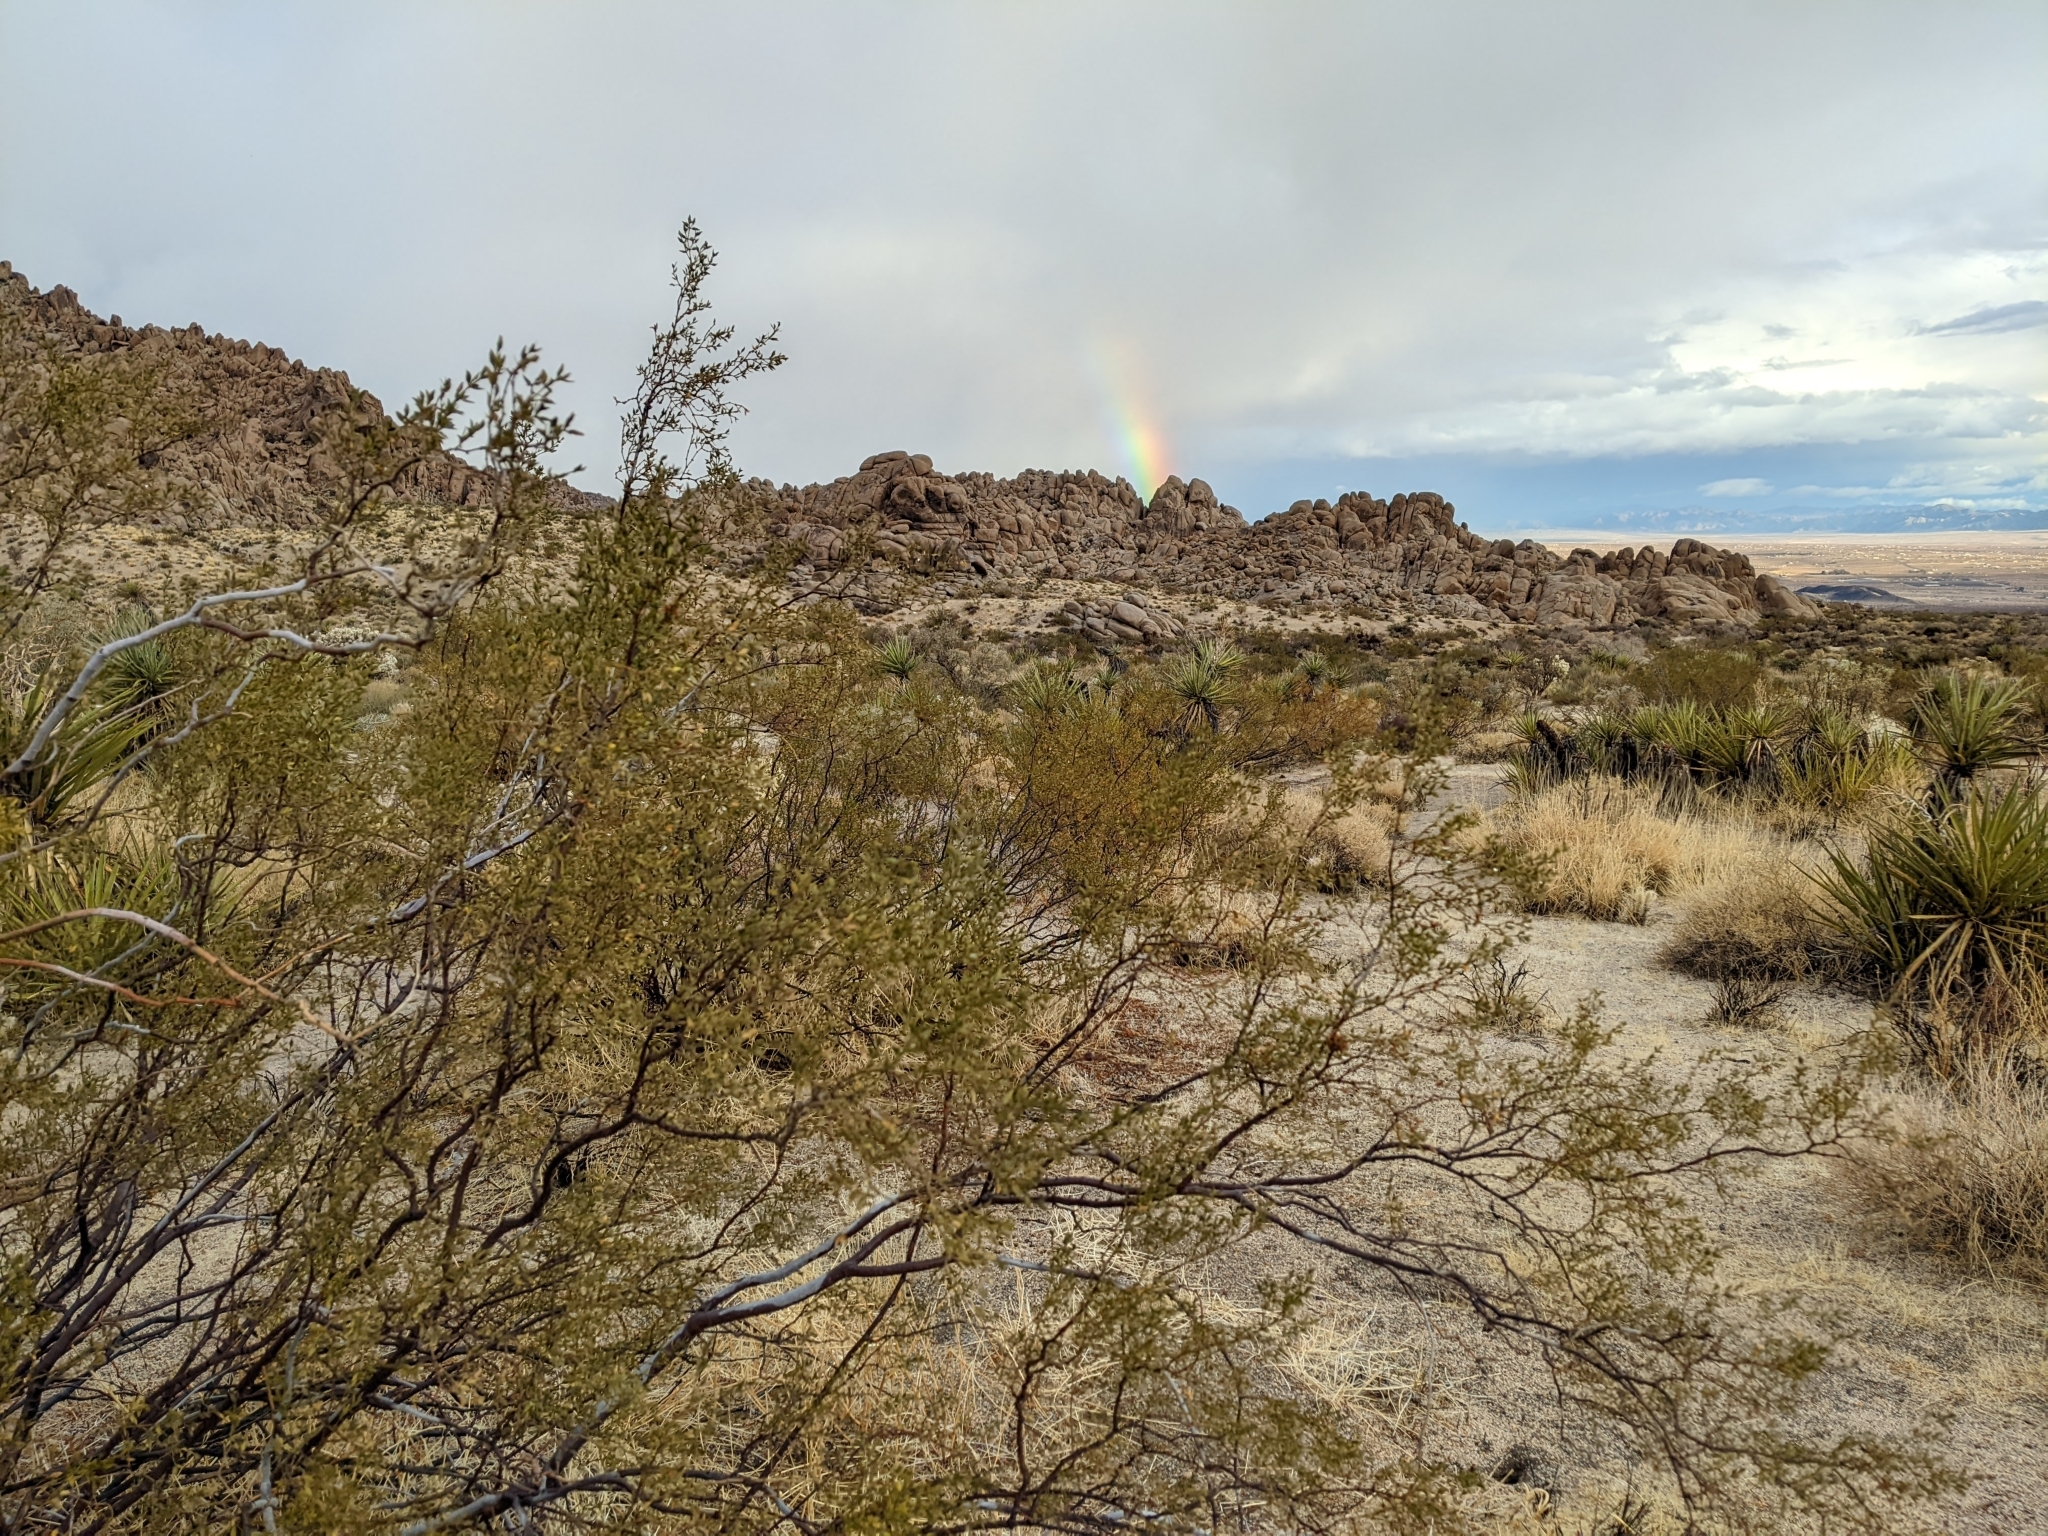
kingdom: Plantae
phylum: Tracheophyta
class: Magnoliopsida
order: Zygophyllales
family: Zygophyllaceae
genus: Larrea
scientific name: Larrea tridentata
